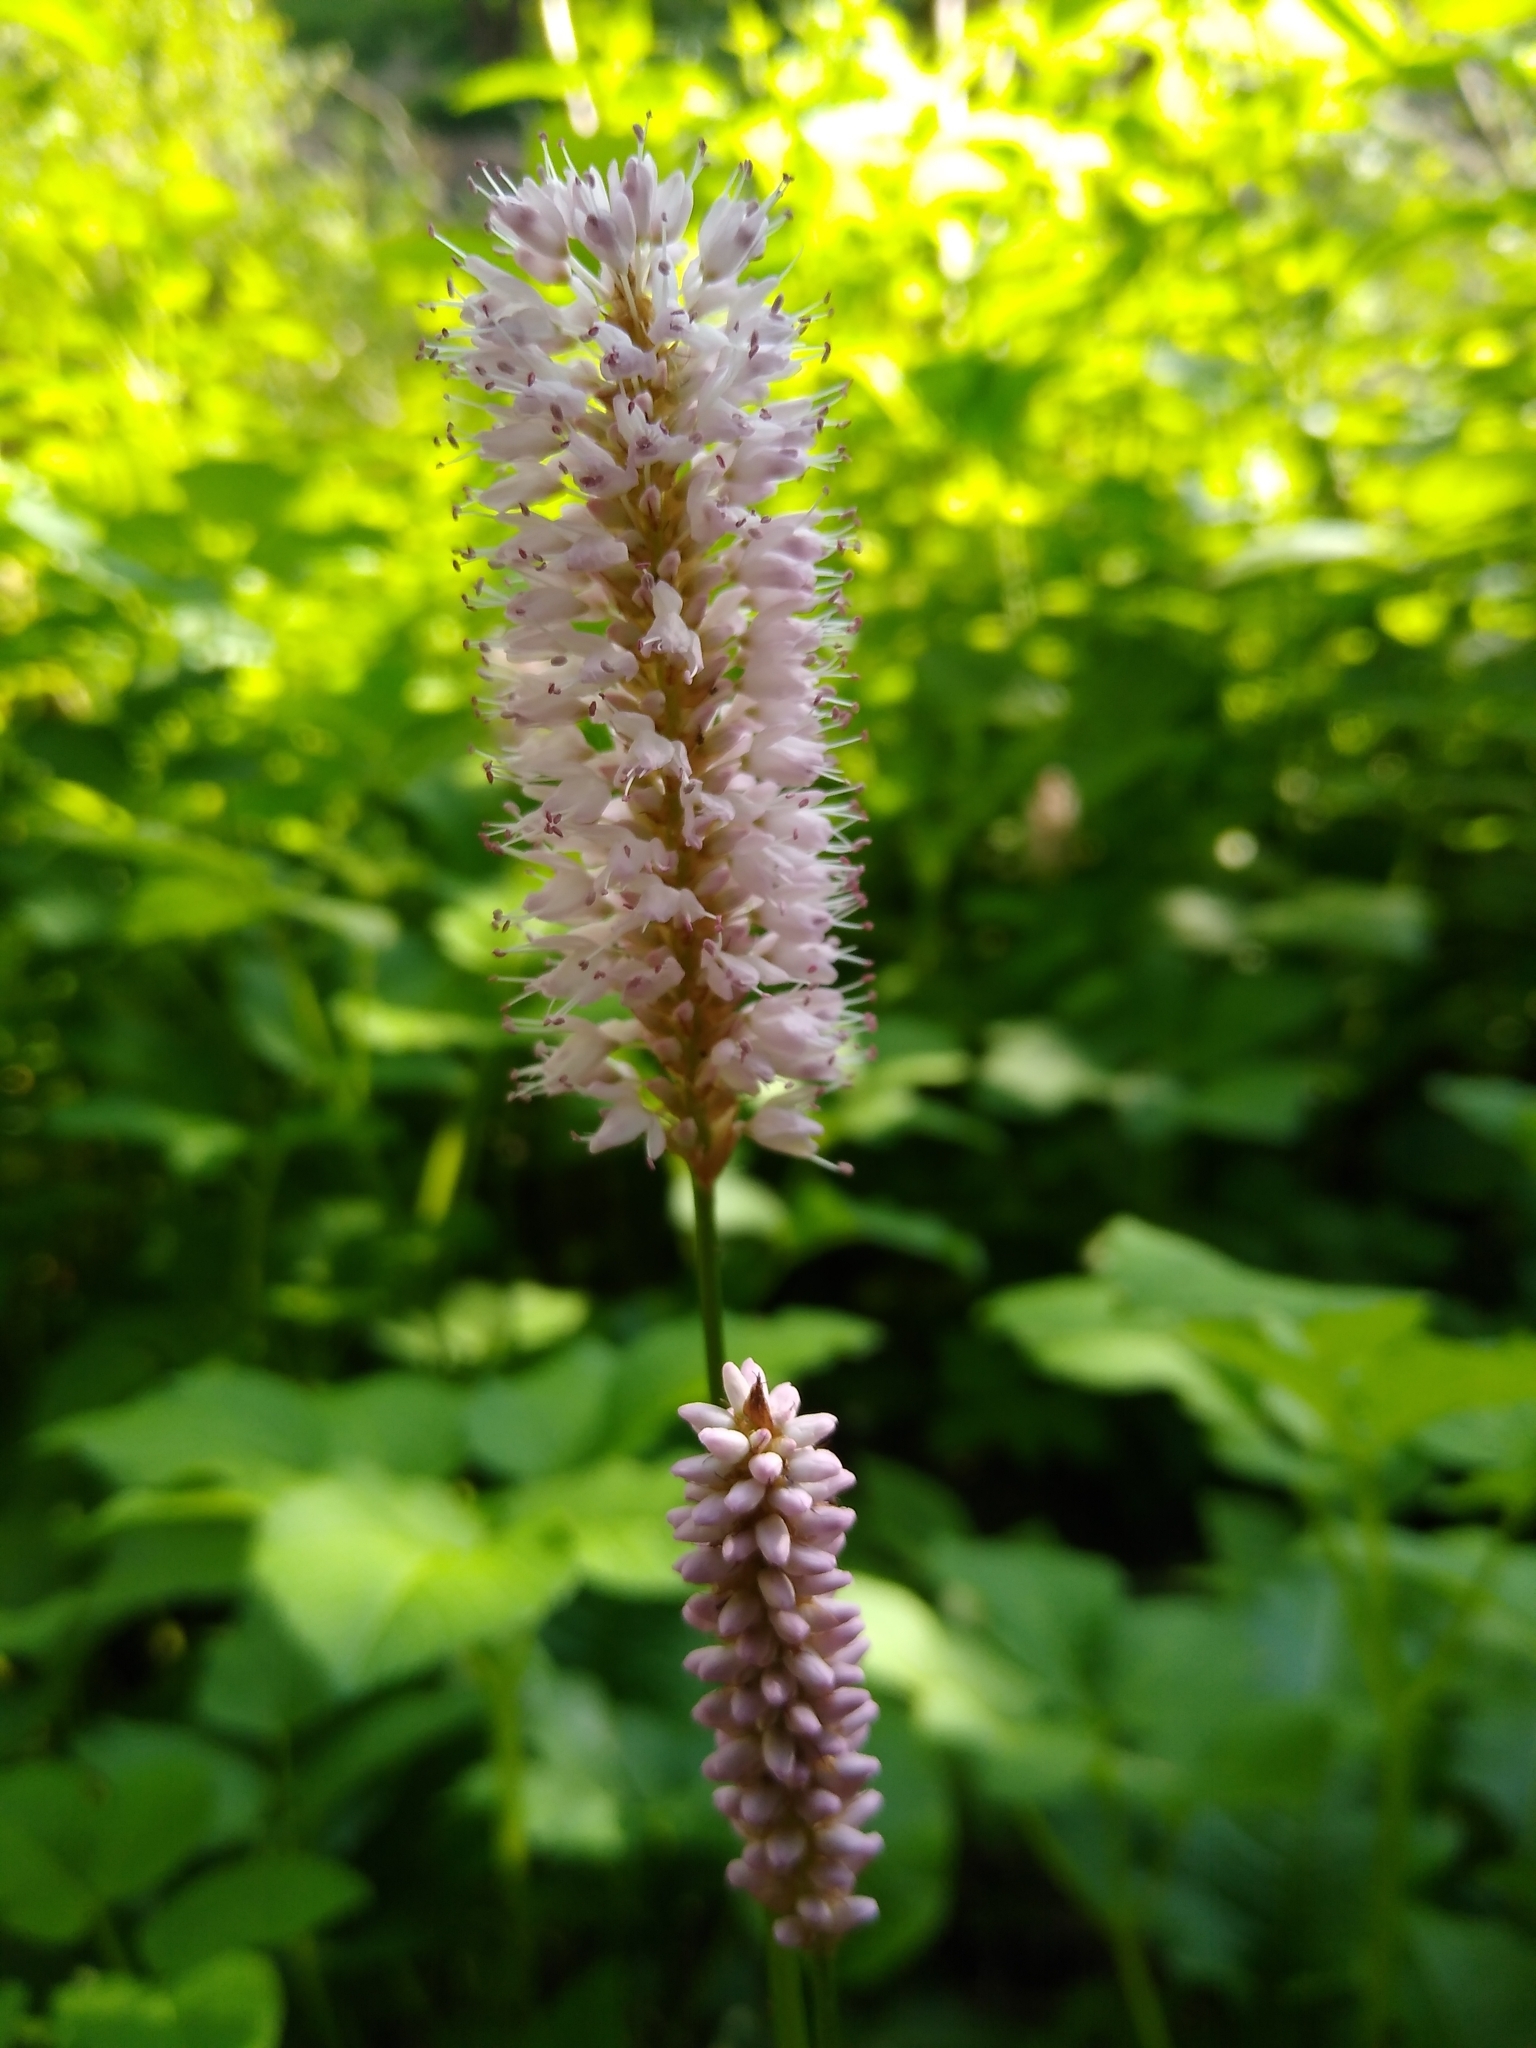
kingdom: Plantae
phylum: Tracheophyta
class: Magnoliopsida
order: Caryophyllales
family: Polygonaceae
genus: Bistorta
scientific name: Bistorta officinalis
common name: Common bistort
